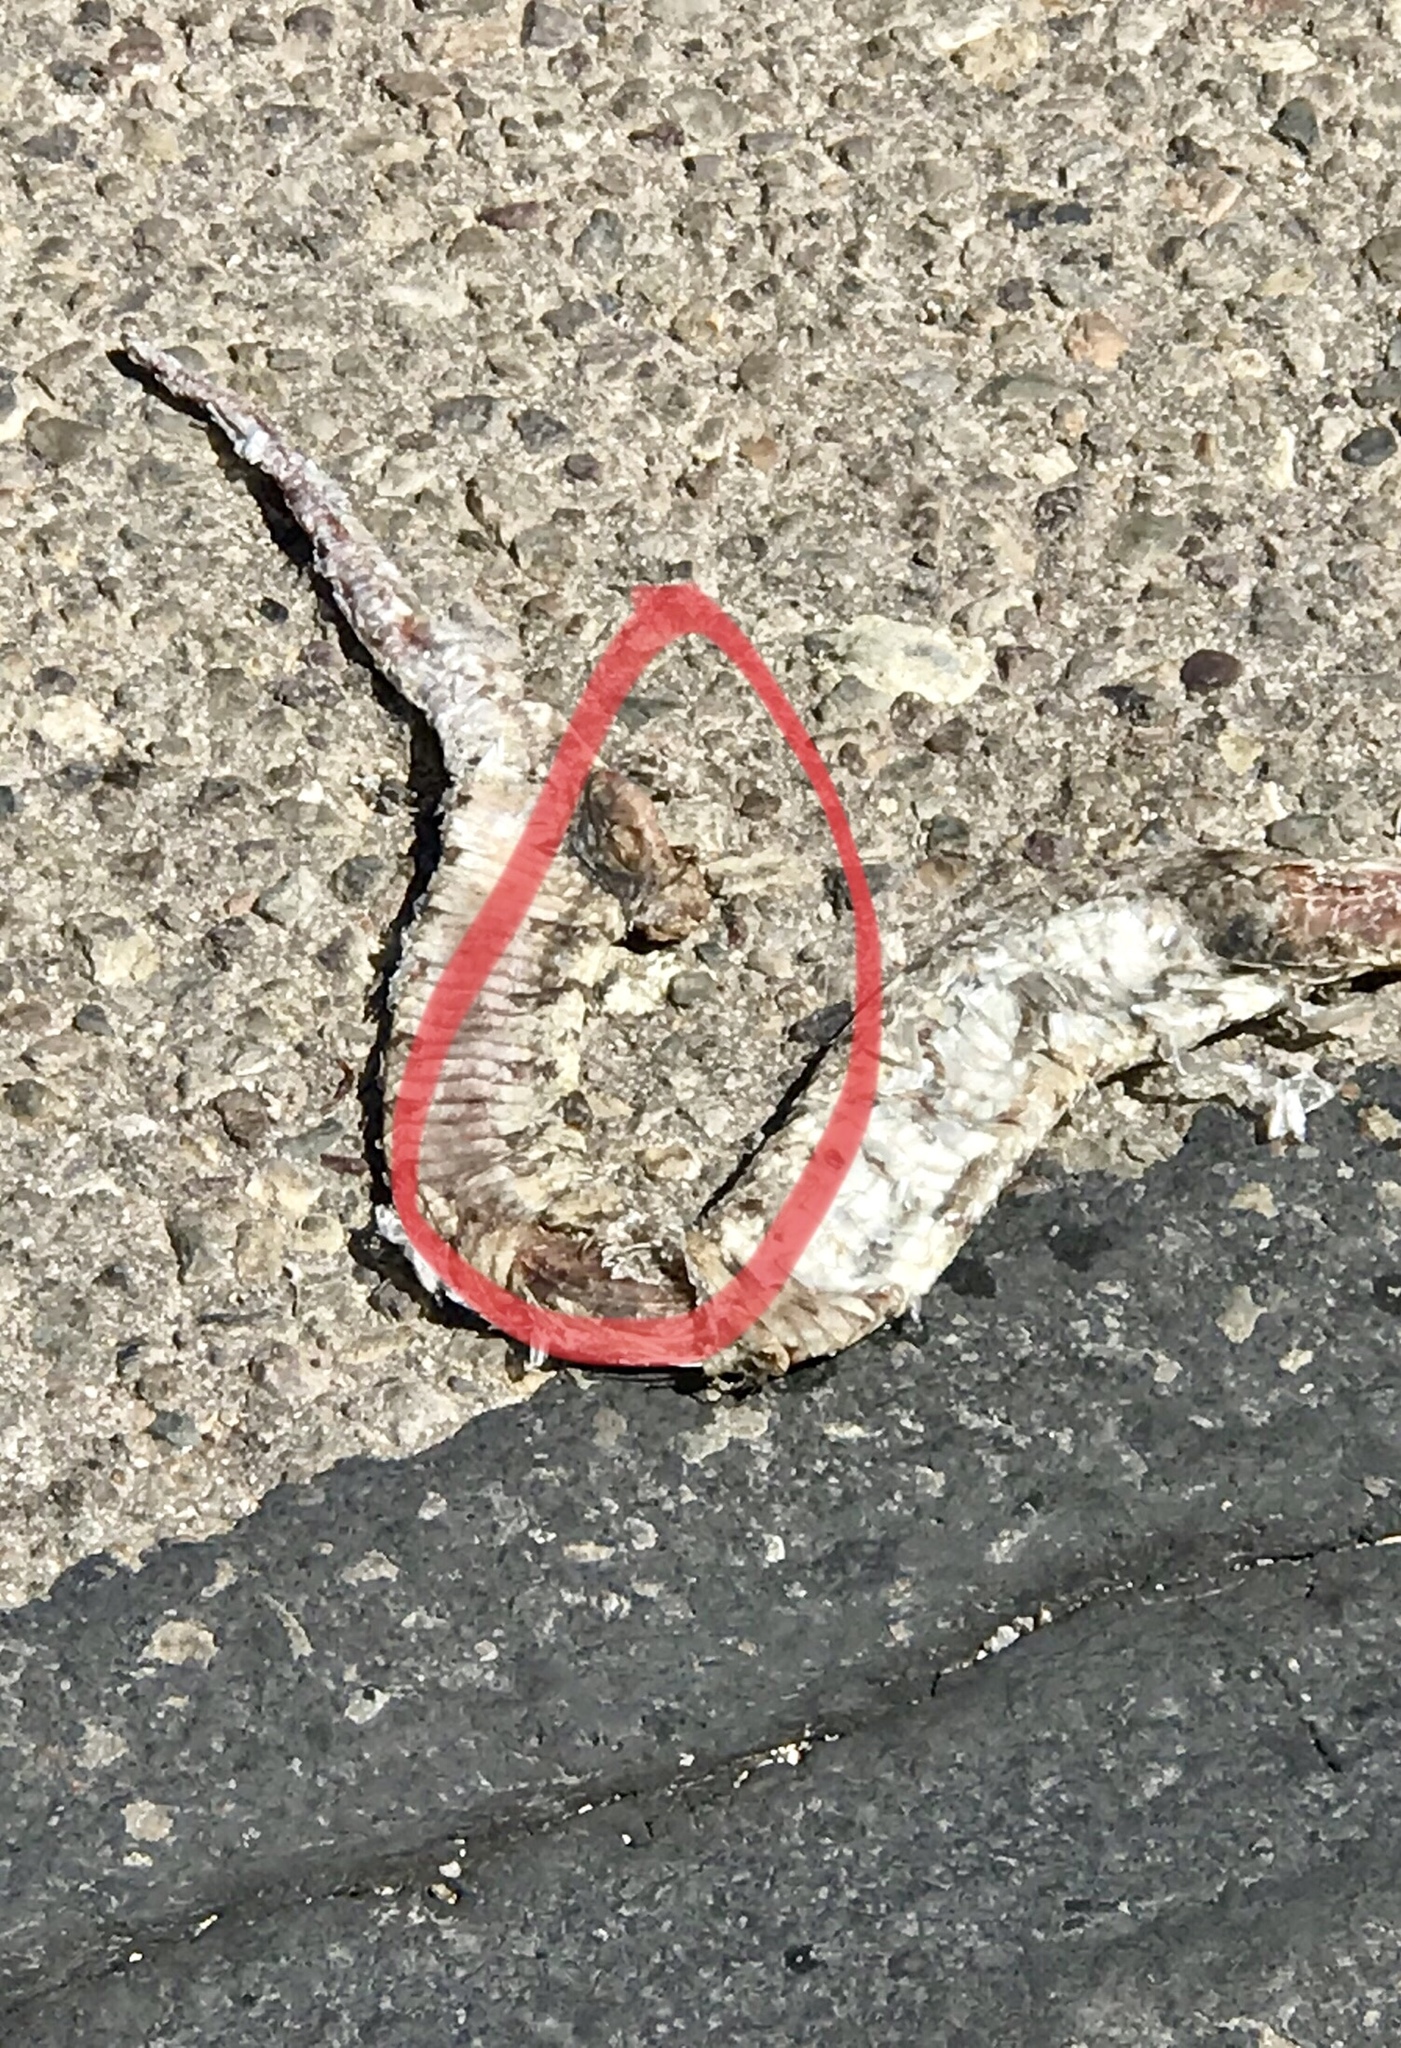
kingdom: Animalia
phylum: Chordata
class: Squamata
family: Colubridae
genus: Pituophis
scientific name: Pituophis catenifer
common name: Gopher snake
